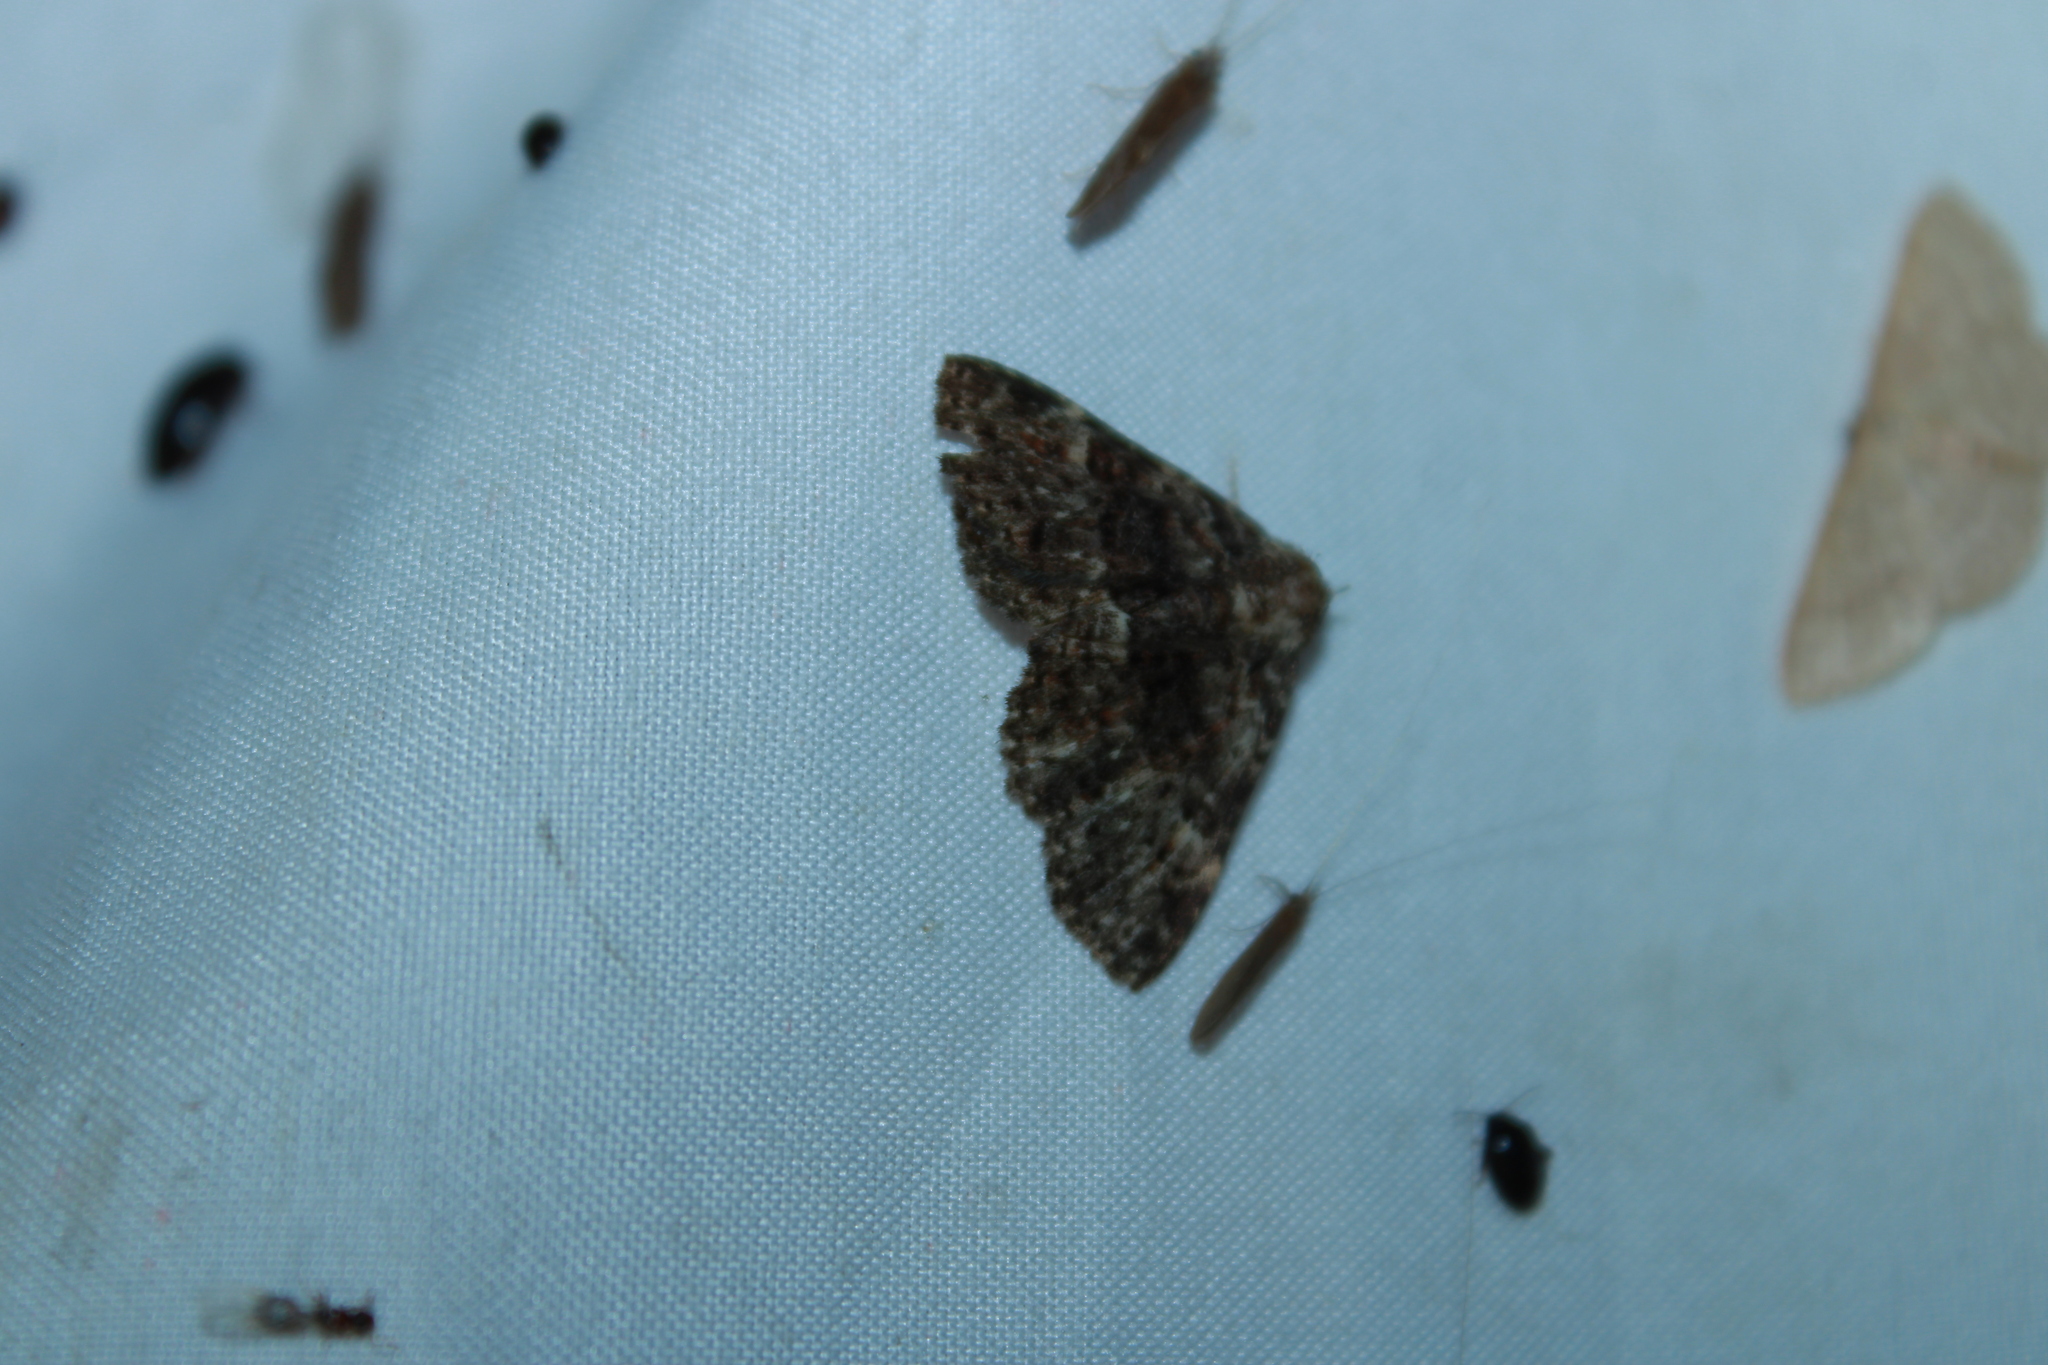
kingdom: Animalia
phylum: Arthropoda
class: Insecta
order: Lepidoptera
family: Erebidae
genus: Metalectra
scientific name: Metalectra discalis
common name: Common fungus moth
